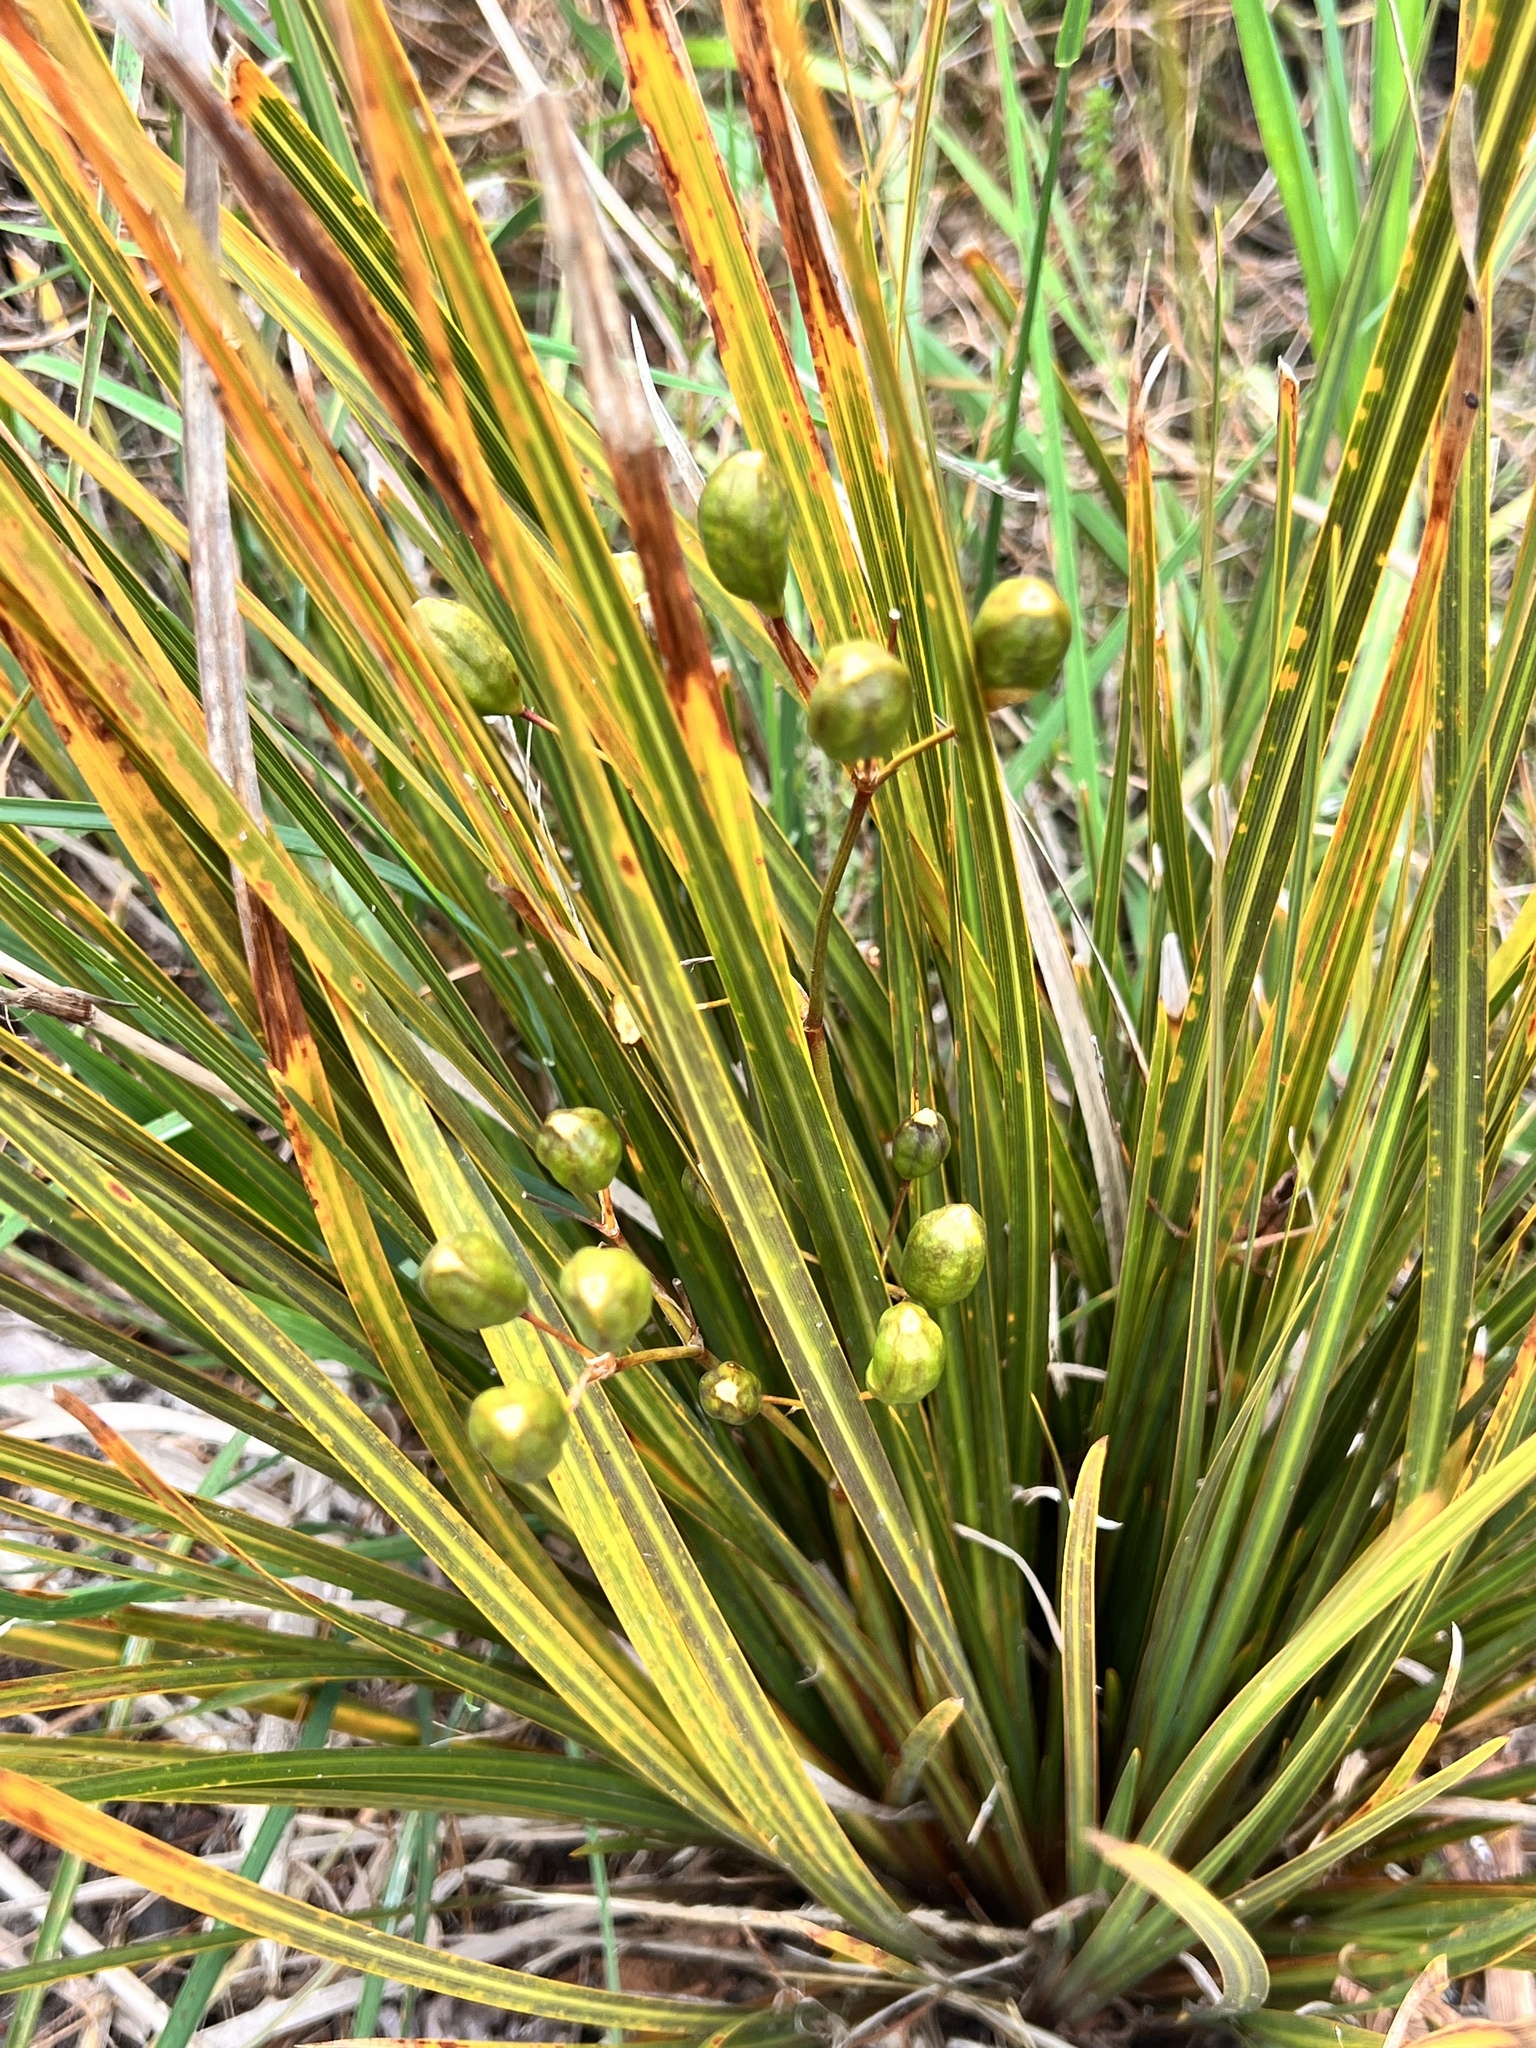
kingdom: Plantae
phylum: Tracheophyta
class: Liliopsida
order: Asparagales
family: Iridaceae
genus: Libertia
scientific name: Libertia ixioides
